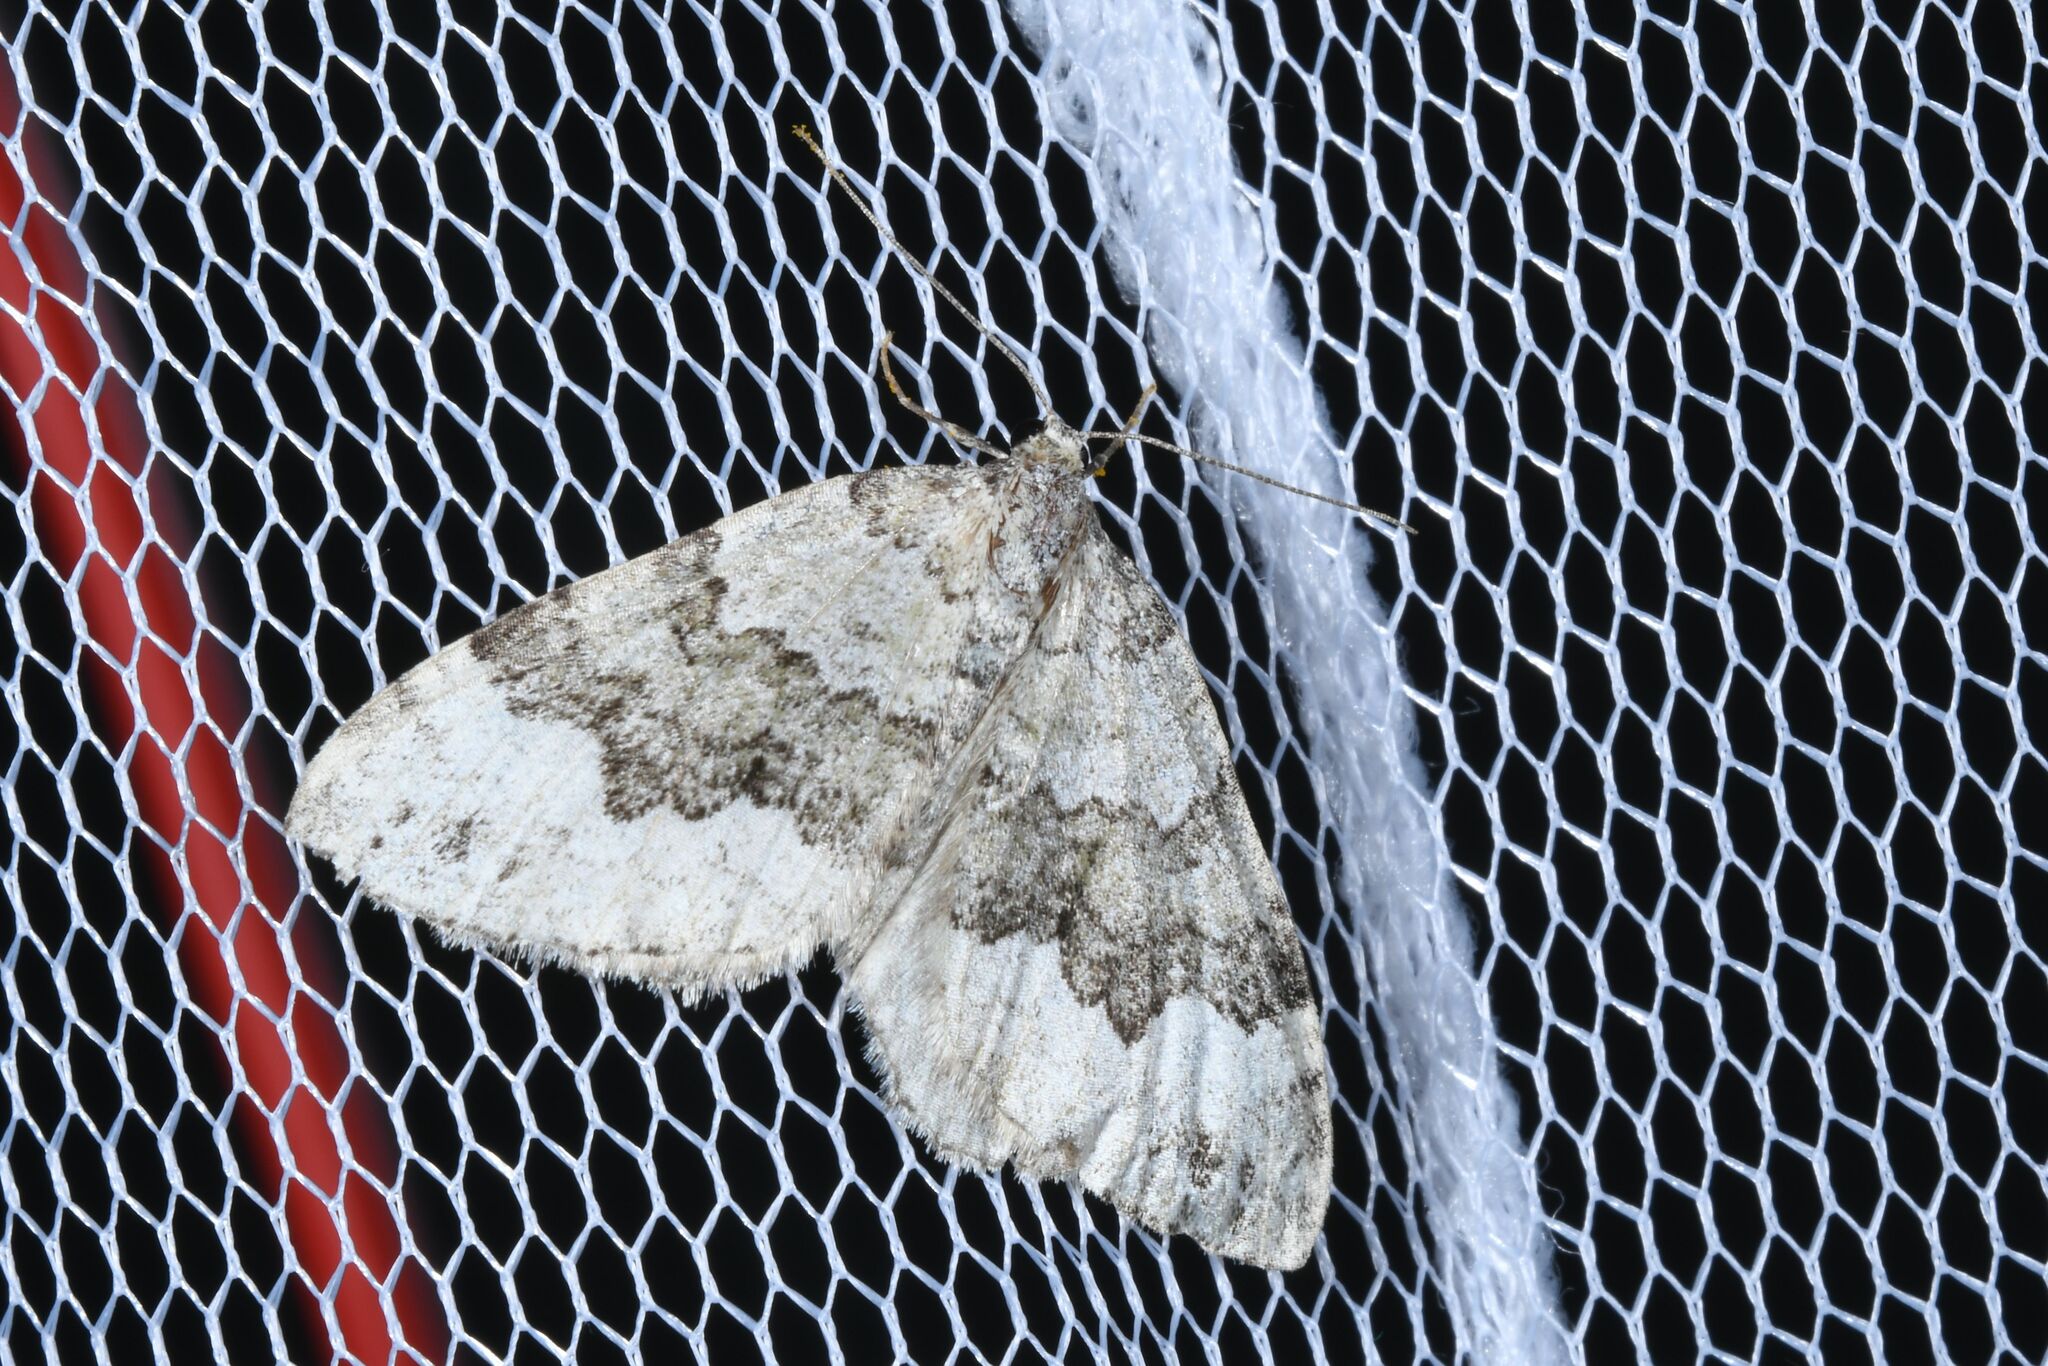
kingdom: Animalia
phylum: Arthropoda
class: Insecta
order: Lepidoptera
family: Geometridae
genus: Colostygia
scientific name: Colostygia aptata
